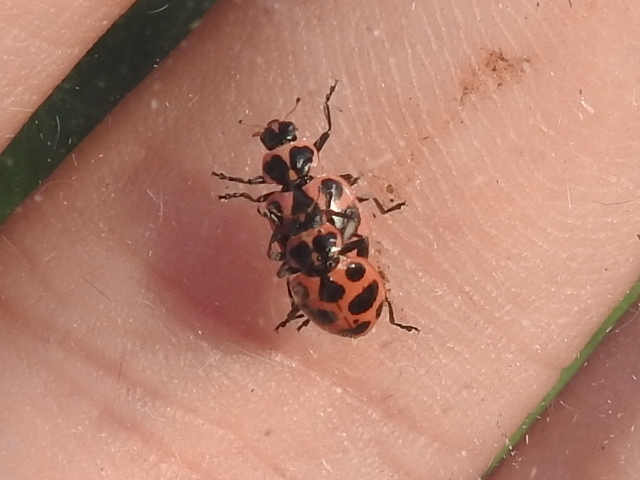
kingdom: Animalia
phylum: Arthropoda
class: Insecta
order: Coleoptera
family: Coccinellidae
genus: Coleomegilla
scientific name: Coleomegilla maculata
